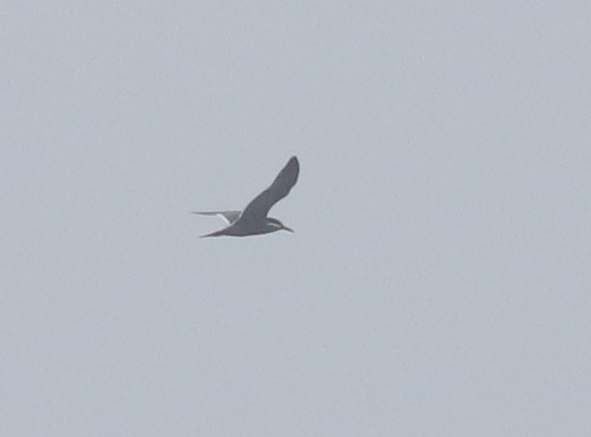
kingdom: Animalia
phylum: Chordata
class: Aves
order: Charadriiformes
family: Laridae
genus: Larosterna
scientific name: Larosterna inca
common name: Inca tern
